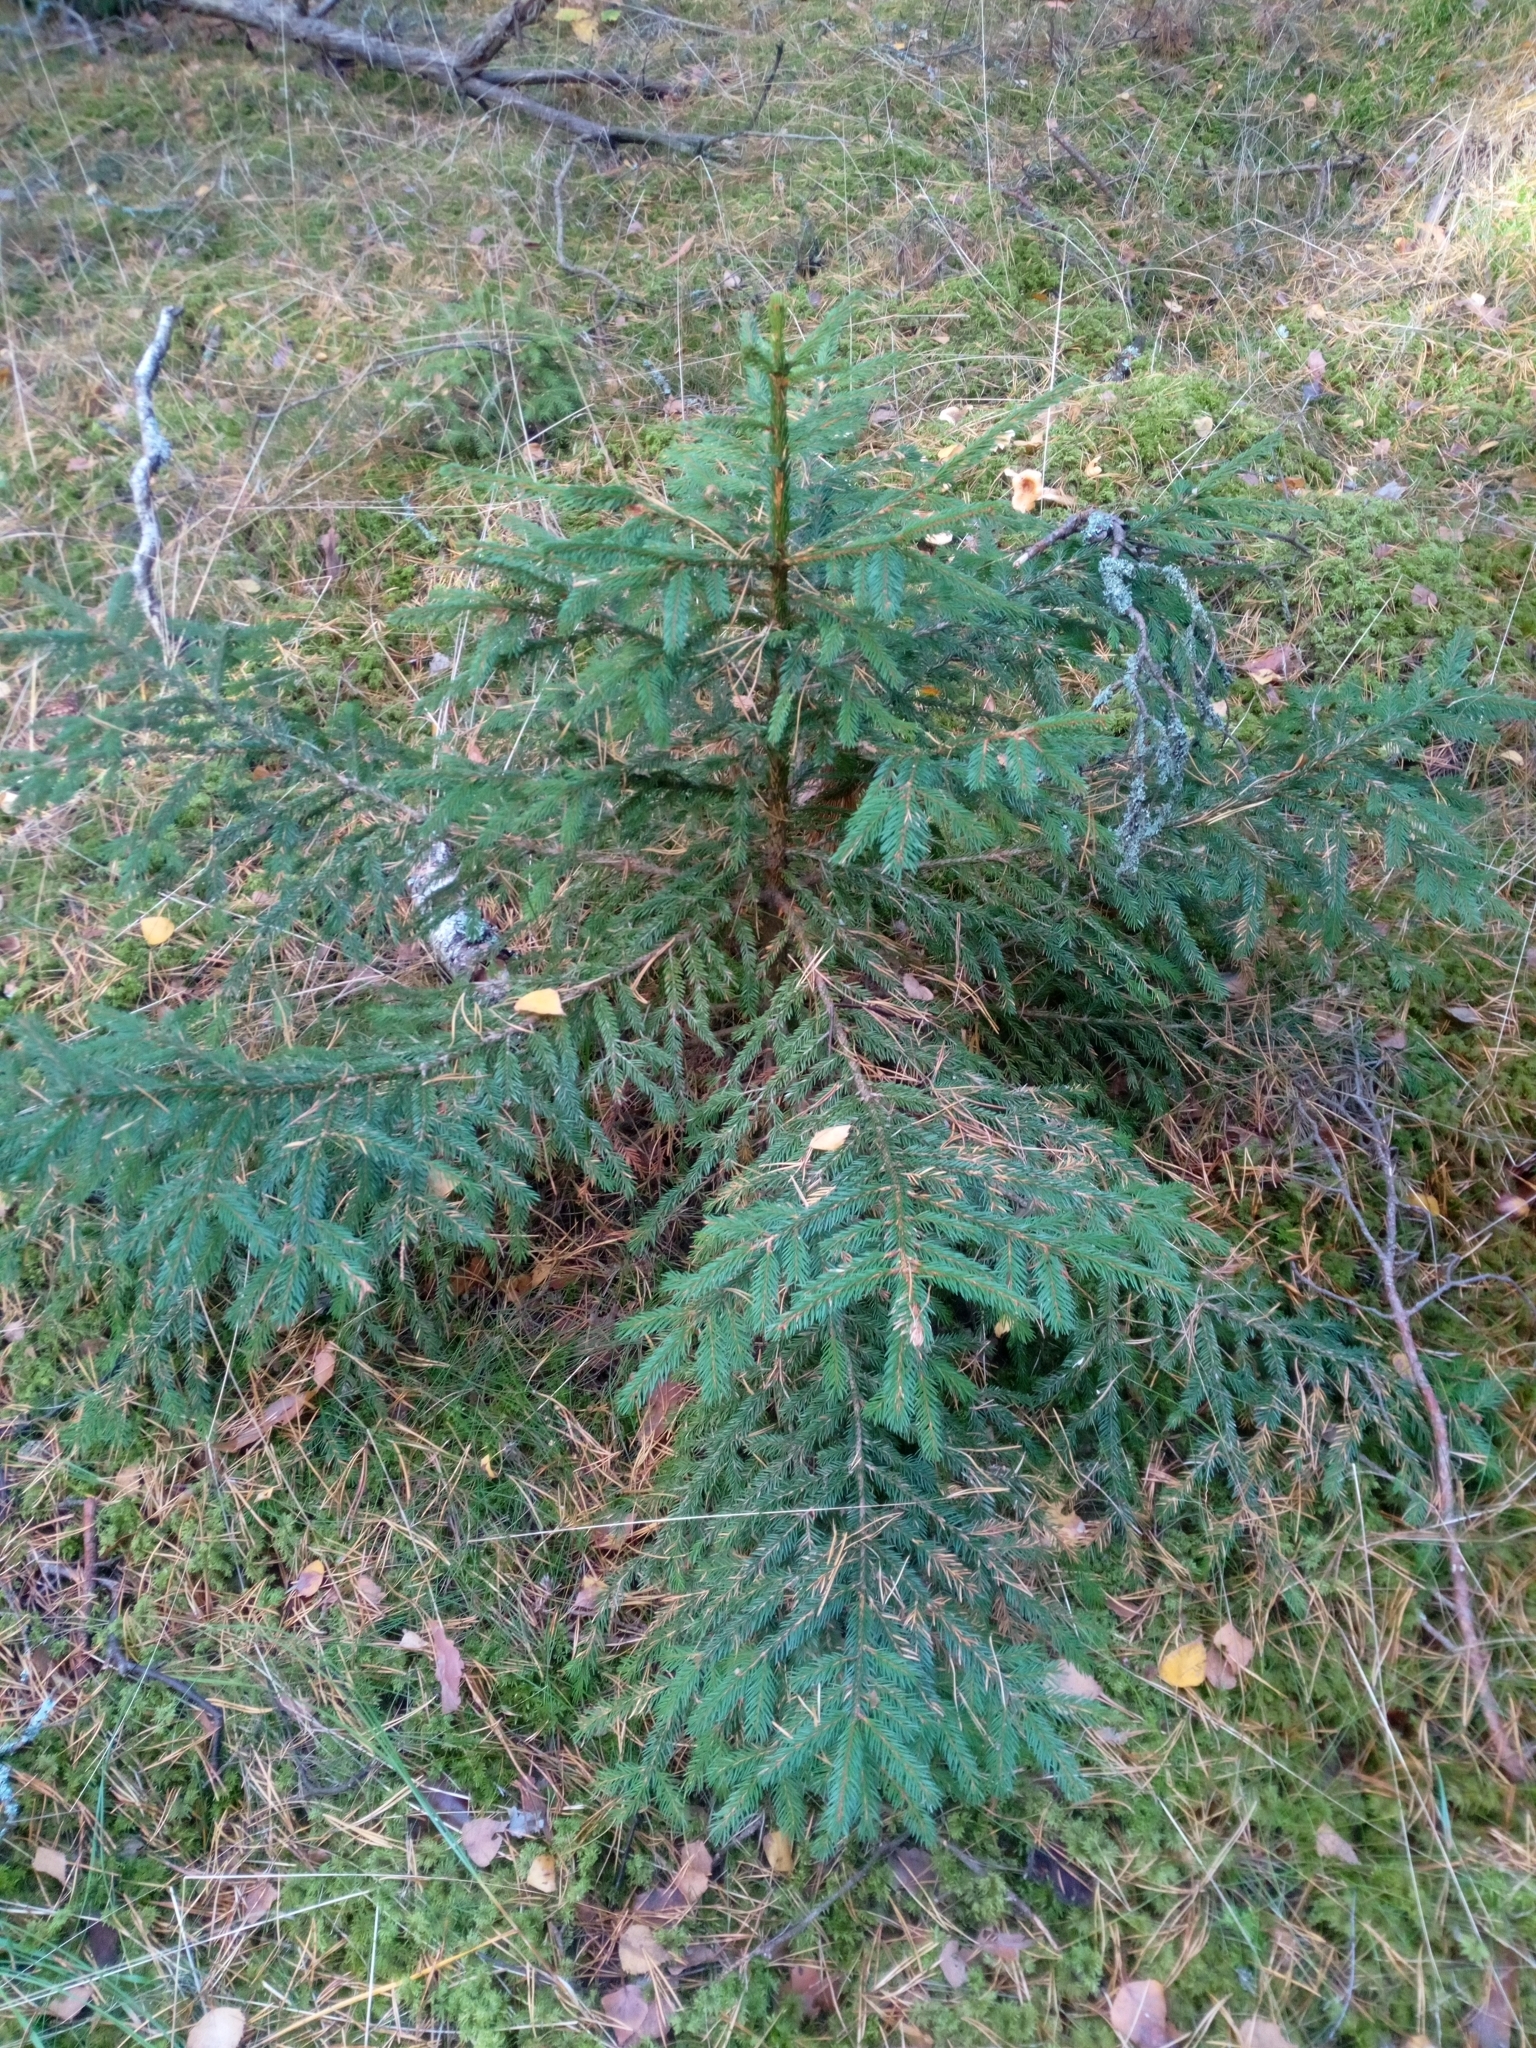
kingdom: Plantae
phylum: Tracheophyta
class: Pinopsida
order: Pinales
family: Pinaceae
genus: Picea
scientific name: Picea abies
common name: Norway spruce
